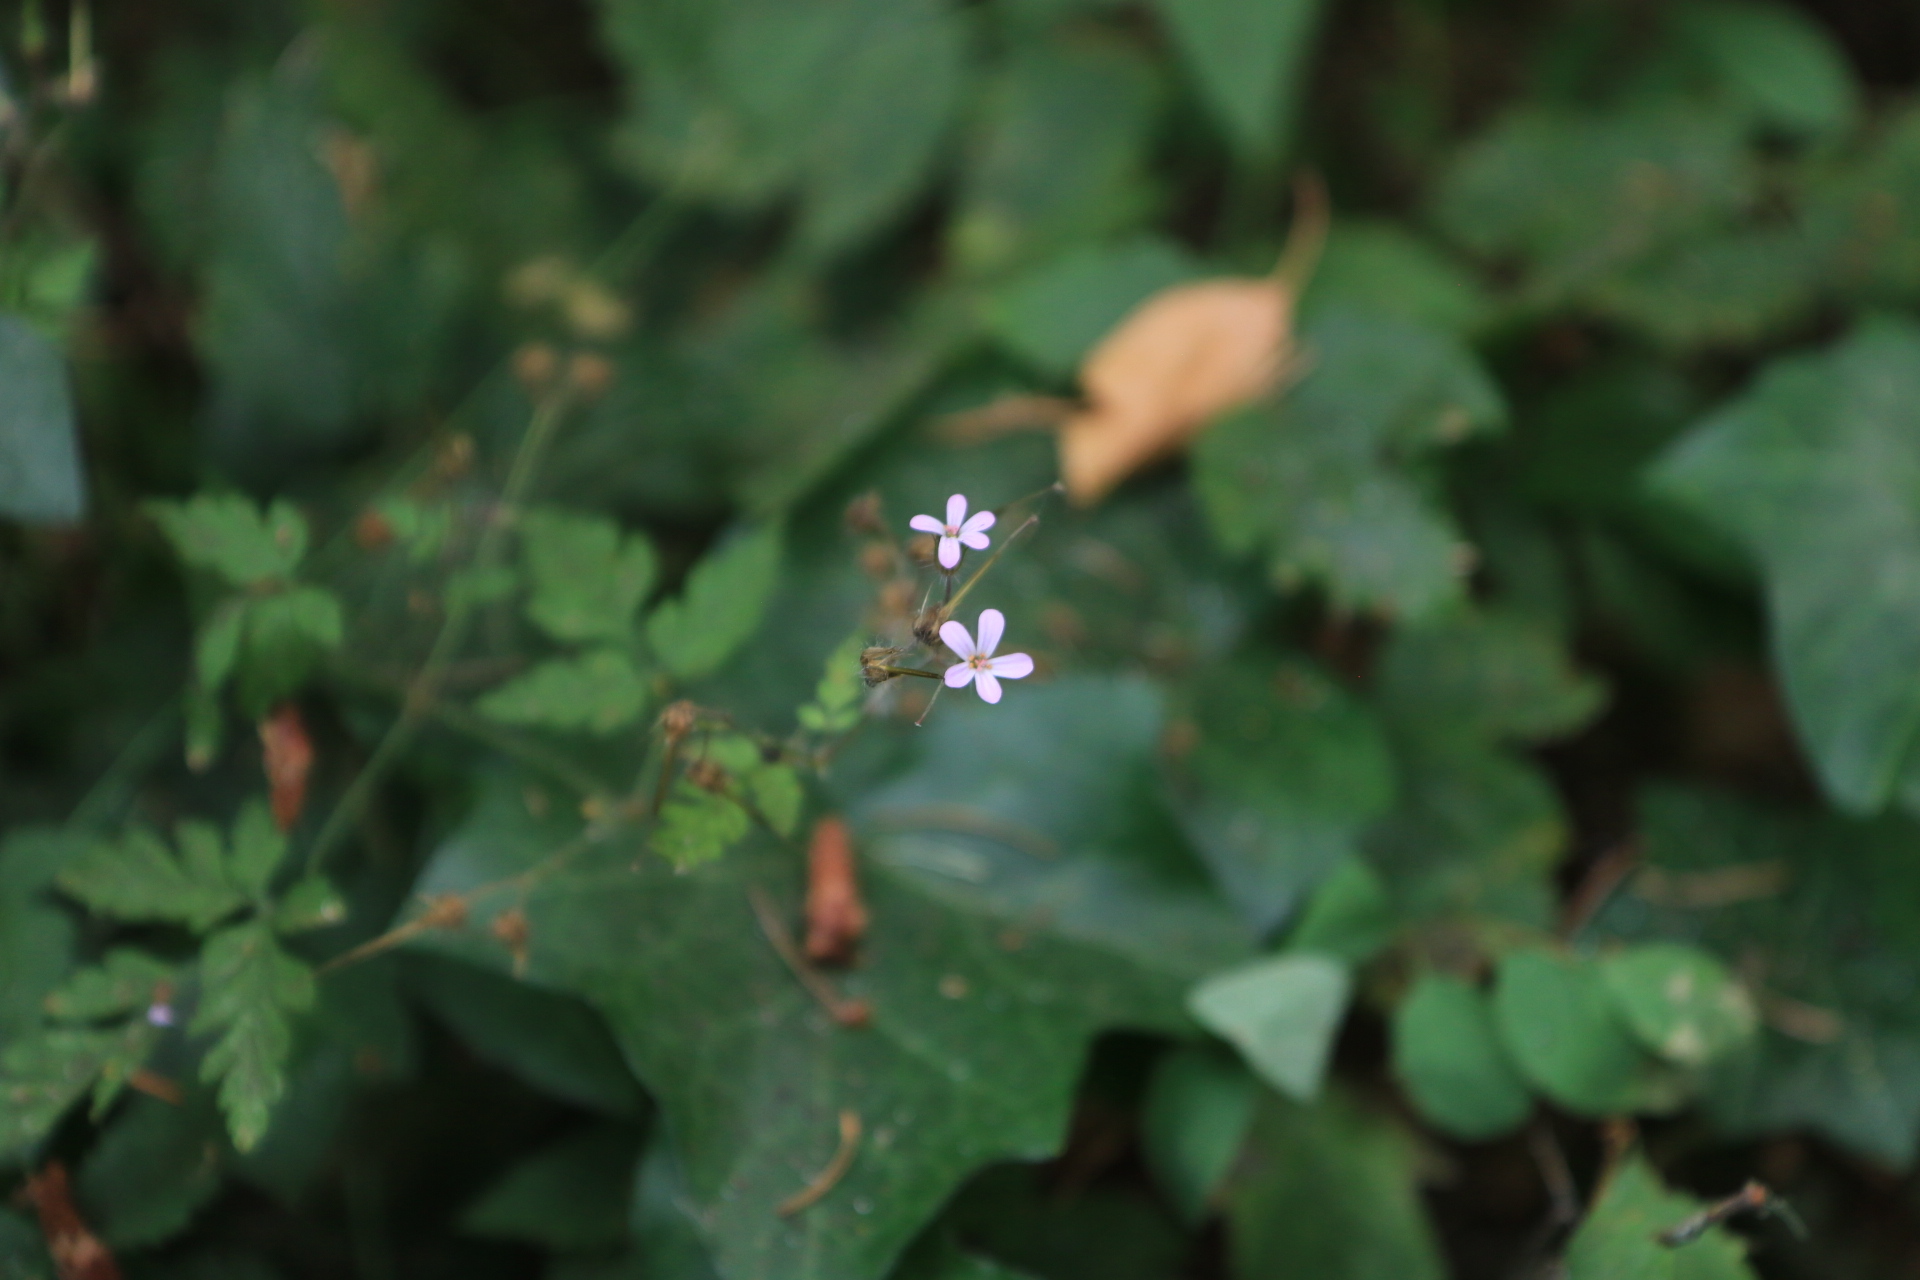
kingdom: Plantae
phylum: Tracheophyta
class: Magnoliopsida
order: Geraniales
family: Geraniaceae
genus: Geranium
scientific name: Geranium robertianum
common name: Herb-robert
